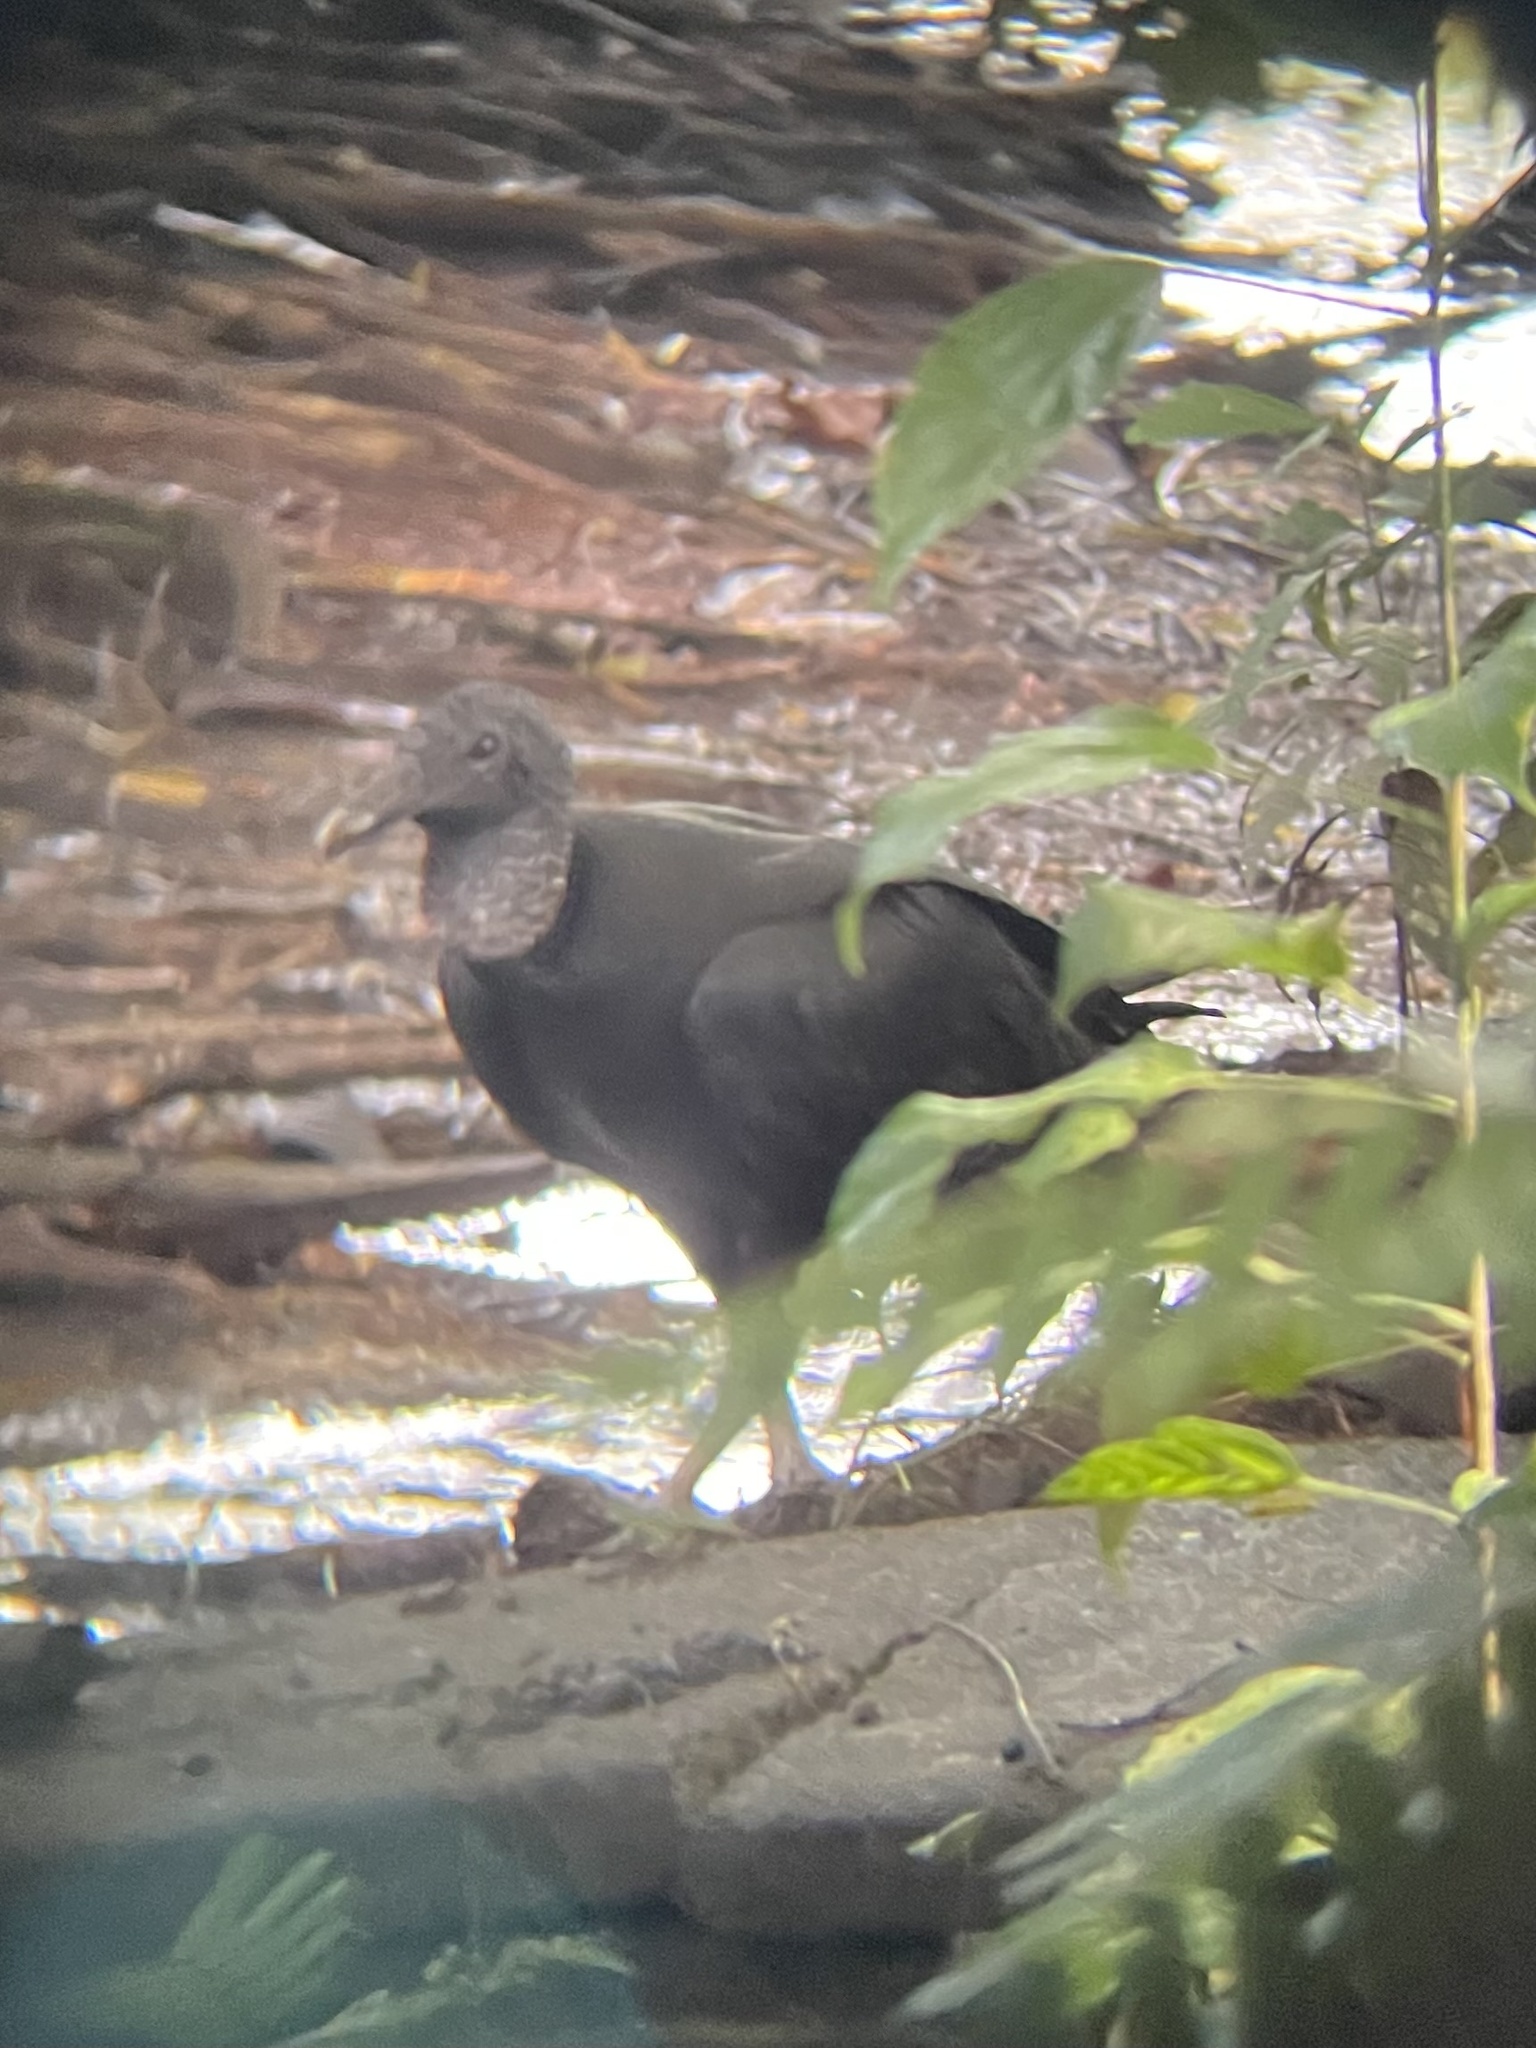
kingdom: Animalia
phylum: Chordata
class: Aves
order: Accipitriformes
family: Cathartidae
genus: Coragyps
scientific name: Coragyps atratus
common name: Black vulture
